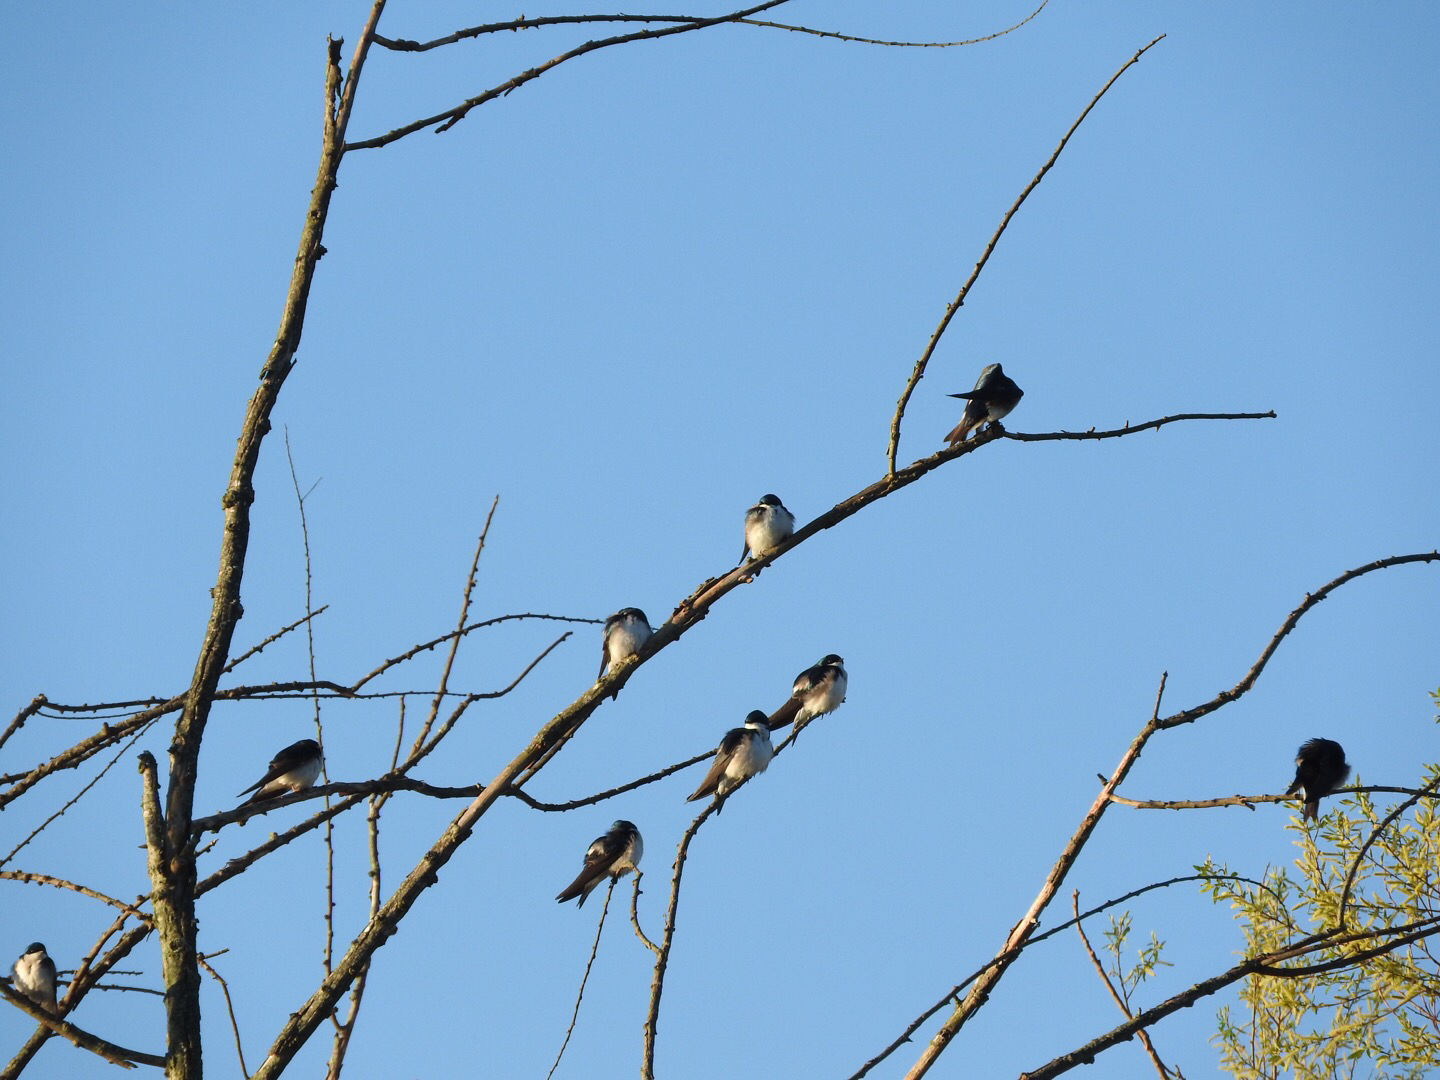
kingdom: Animalia
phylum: Chordata
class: Aves
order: Passeriformes
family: Hirundinidae
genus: Tachycineta
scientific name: Tachycineta bicolor
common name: Tree swallow
